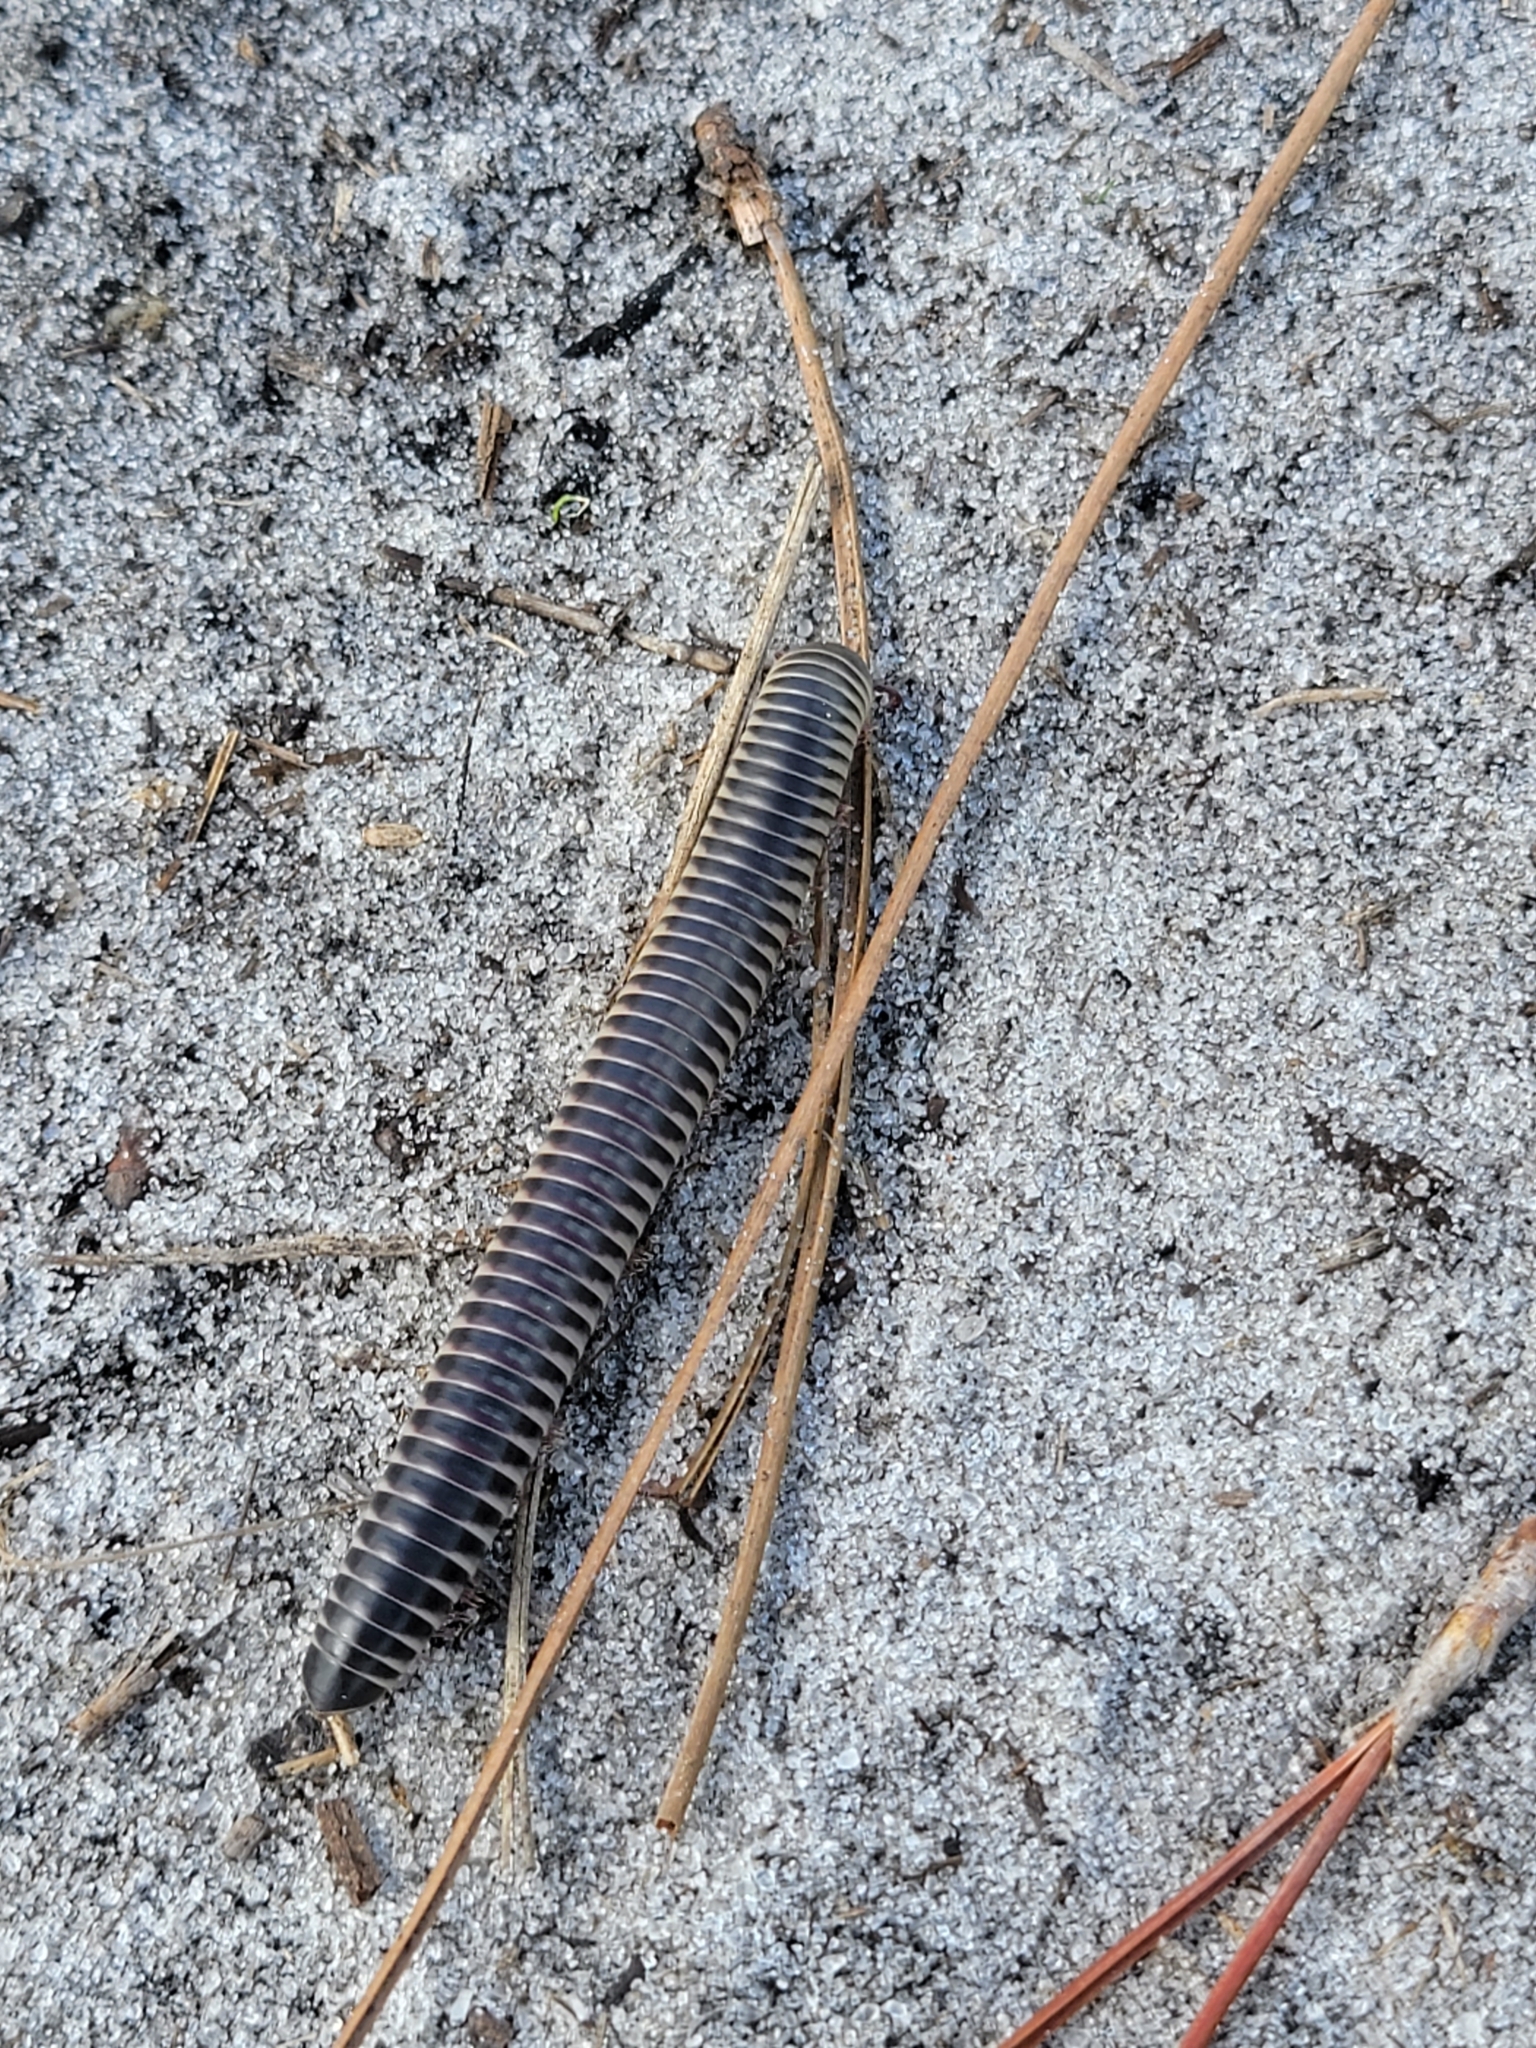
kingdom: Animalia
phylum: Arthropoda
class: Diplopoda
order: Spirobolida
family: Spirobolidae
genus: Chicobolus
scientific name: Chicobolus spinigerus
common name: Florida ivory millipede
